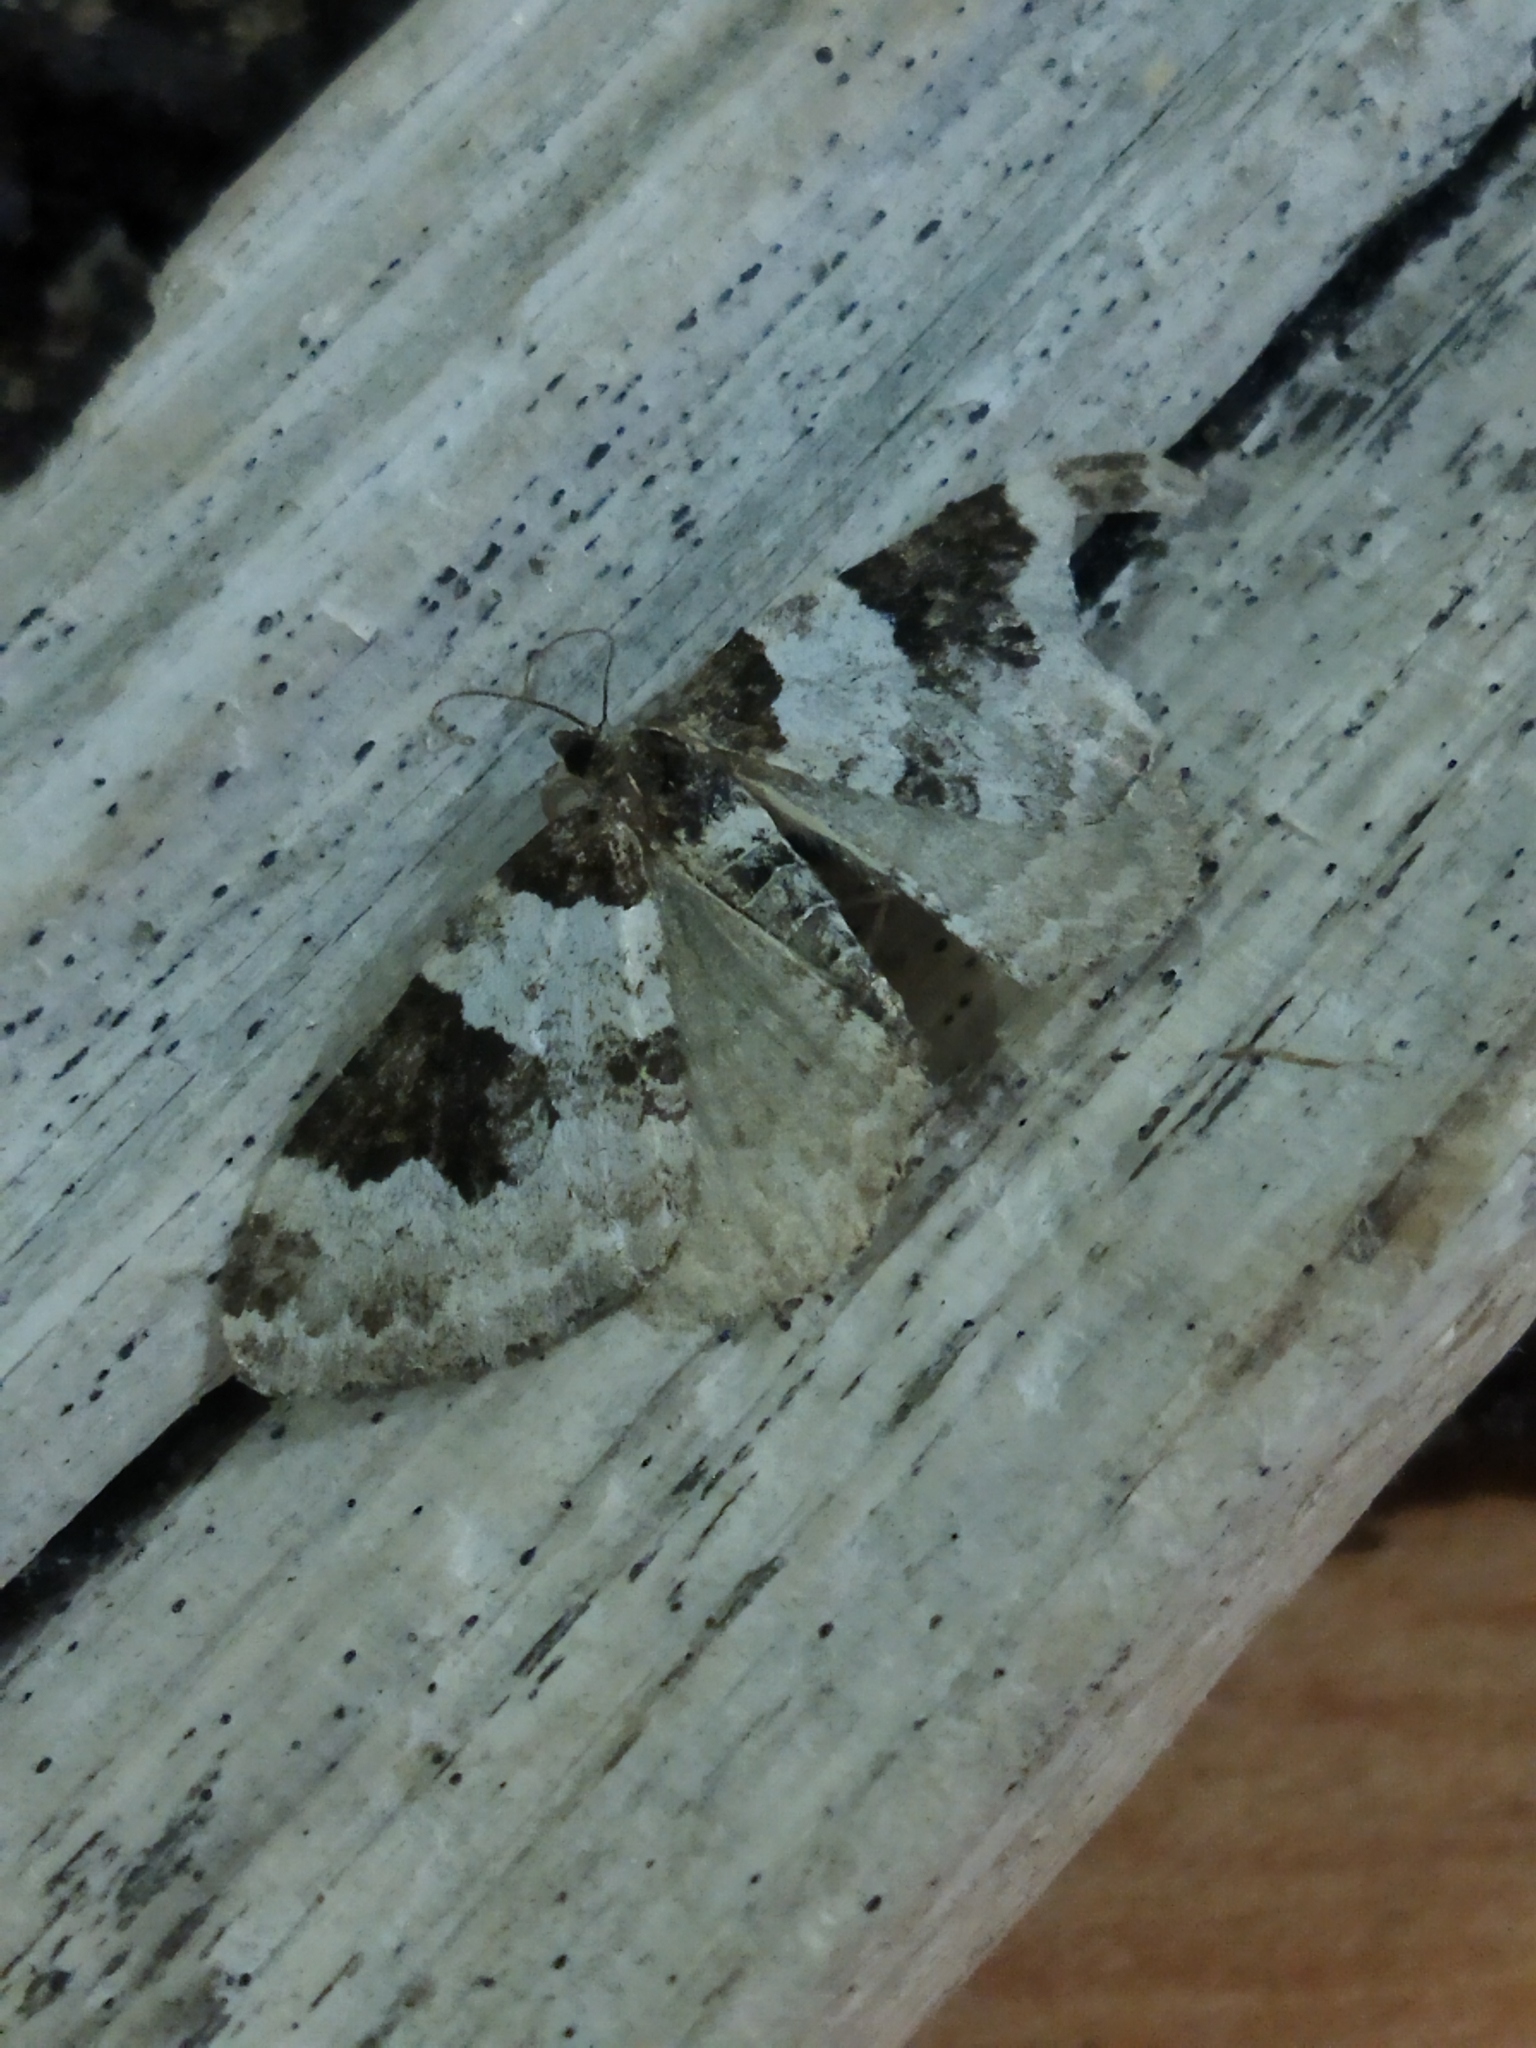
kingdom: Animalia
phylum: Arthropoda
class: Insecta
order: Lepidoptera
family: Geometridae
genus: Xanthorhoe
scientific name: Xanthorhoe fluctuata
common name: Garden carpet
